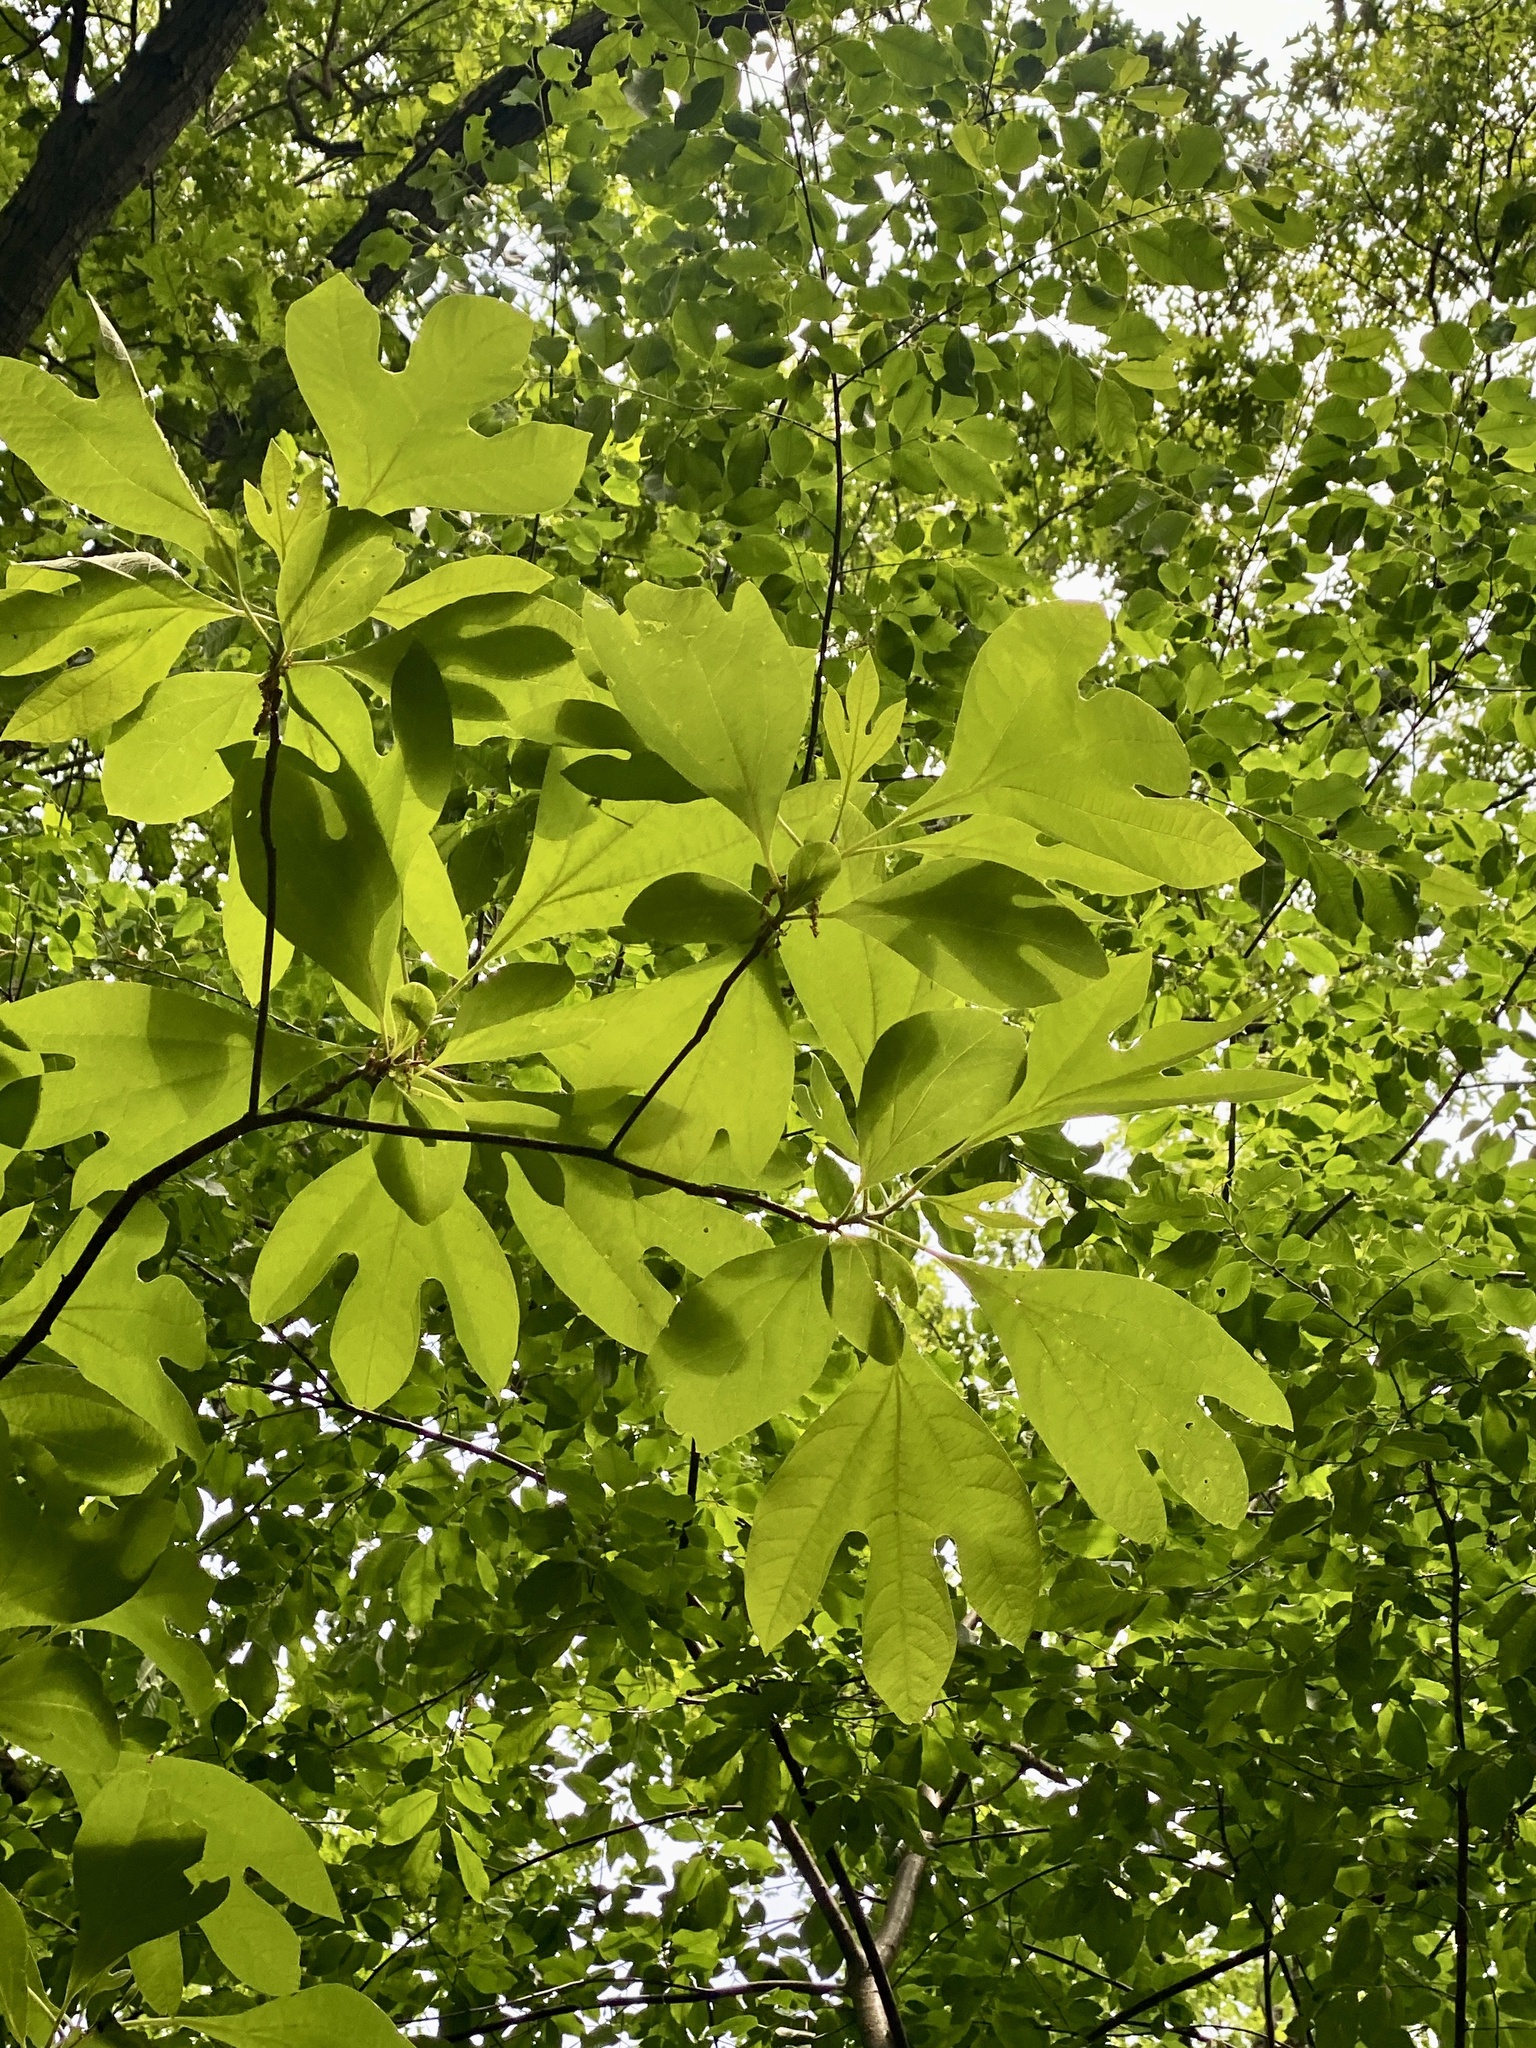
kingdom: Plantae
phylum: Tracheophyta
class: Magnoliopsida
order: Laurales
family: Lauraceae
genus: Sassafras
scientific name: Sassafras albidum
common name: Sassafras
